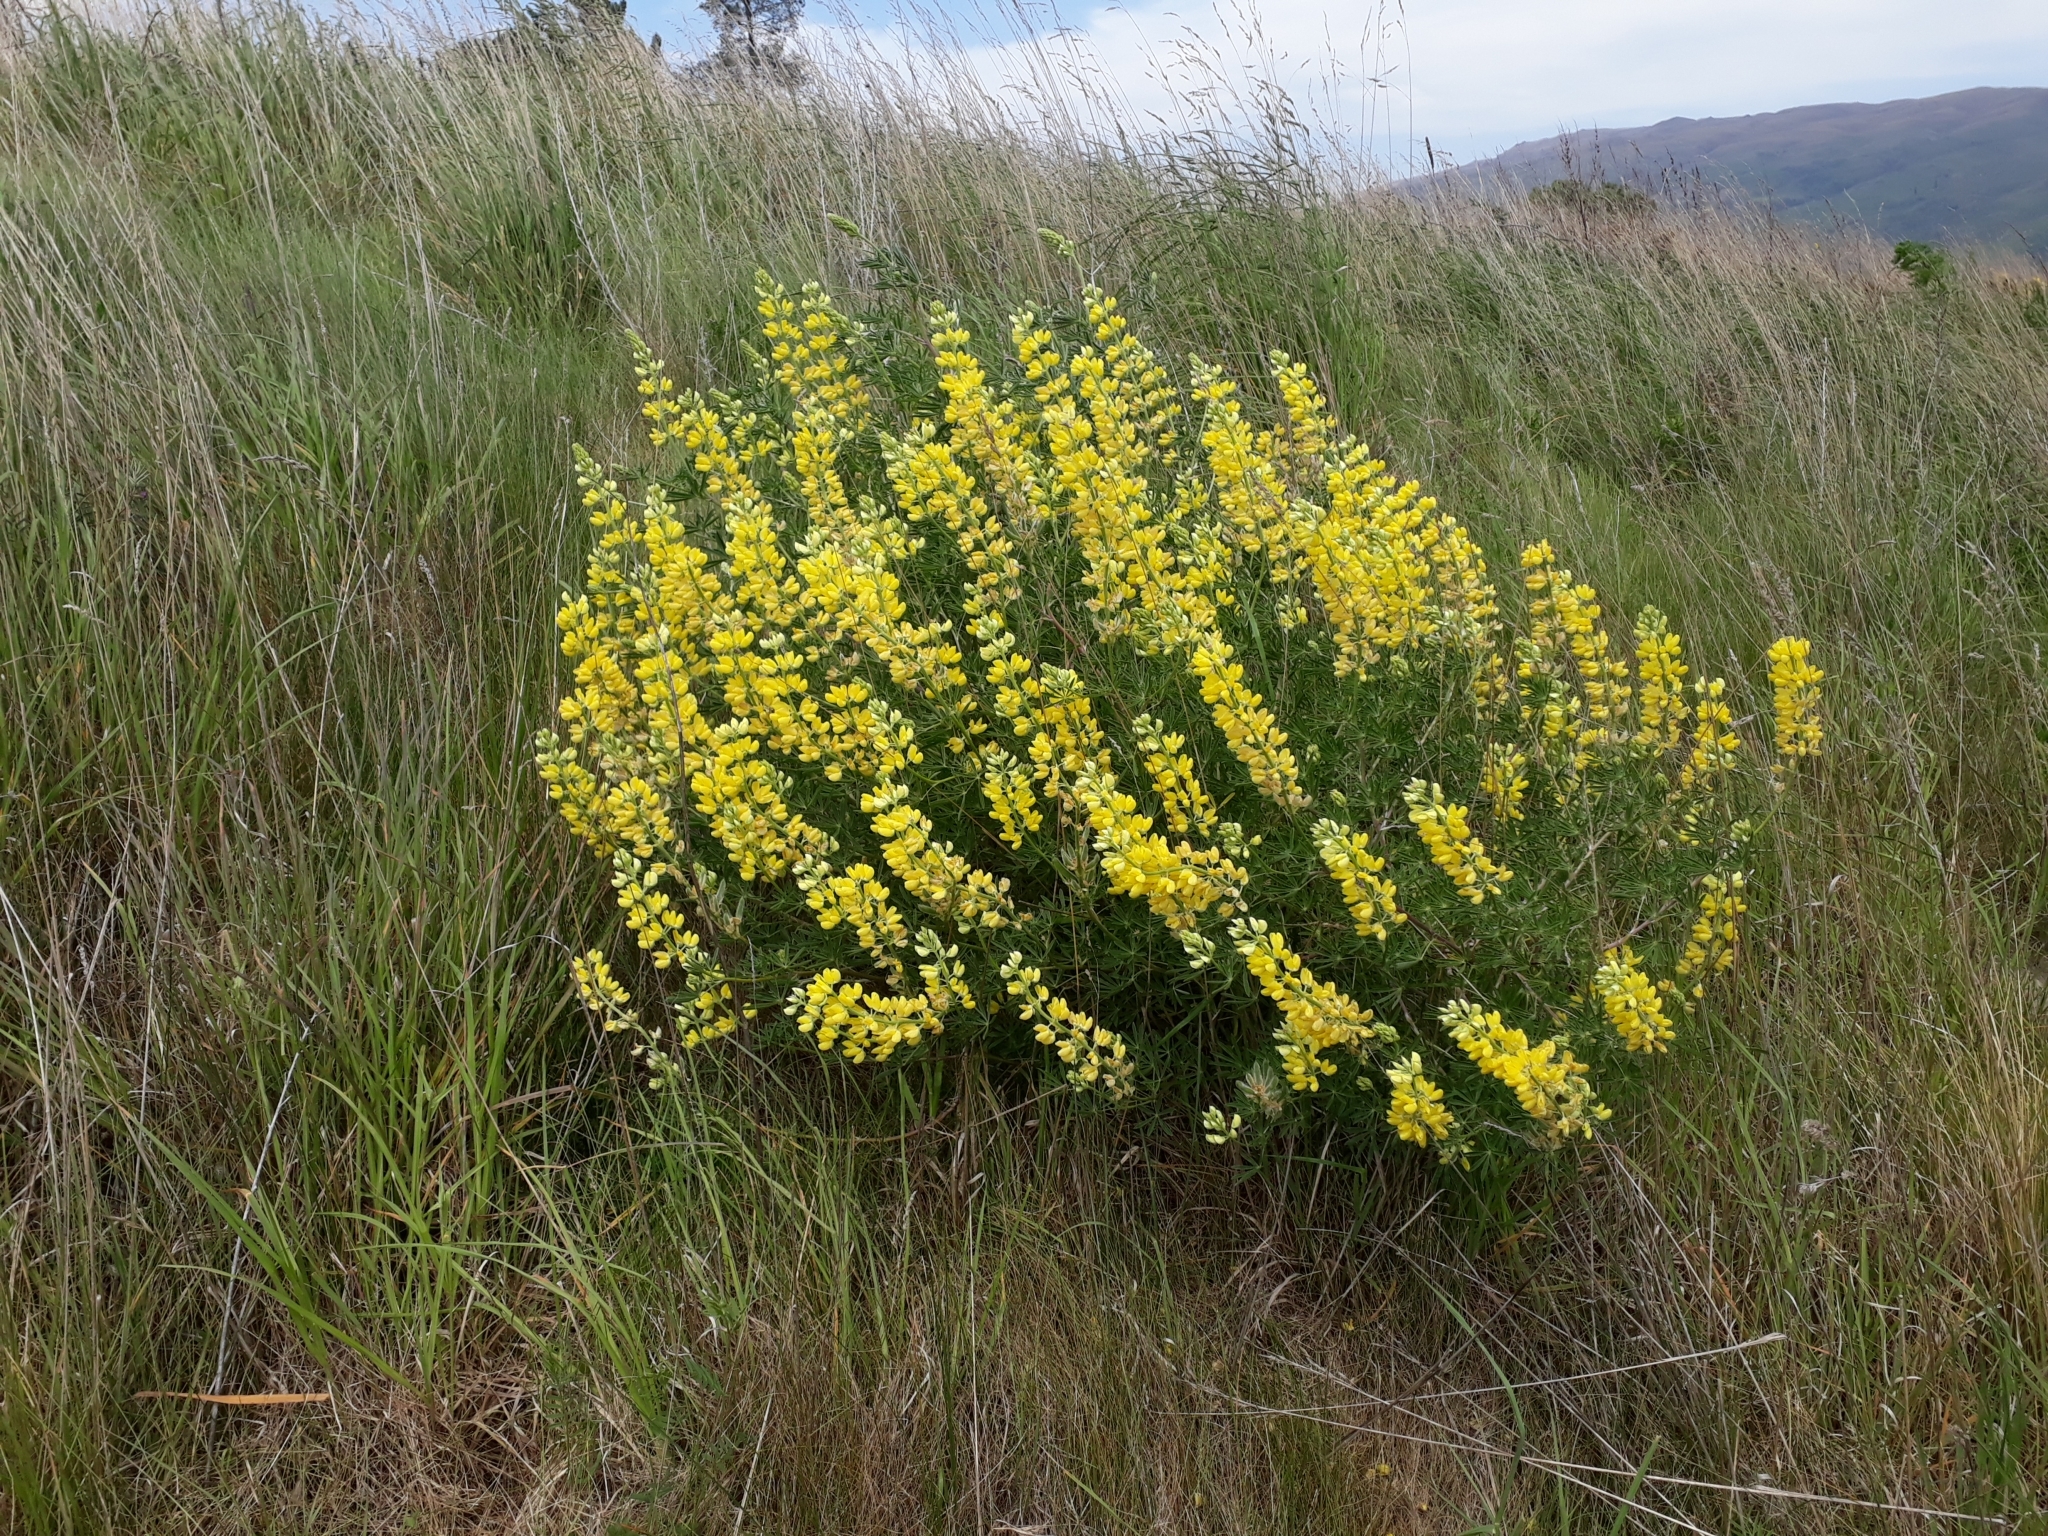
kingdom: Plantae
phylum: Tracheophyta
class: Magnoliopsida
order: Fabales
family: Fabaceae
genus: Lupinus
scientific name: Lupinus arboreus
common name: Yellow bush lupine
